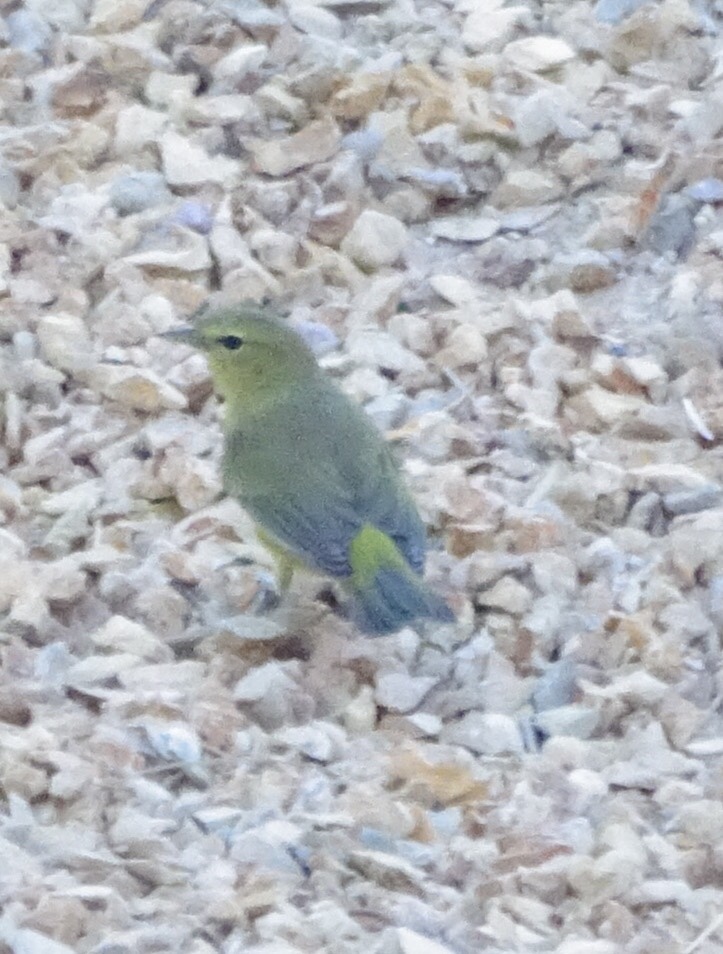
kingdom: Animalia
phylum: Chordata
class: Aves
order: Passeriformes
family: Parulidae
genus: Leiothlypis
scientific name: Leiothlypis celata
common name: Orange-crowned warbler
